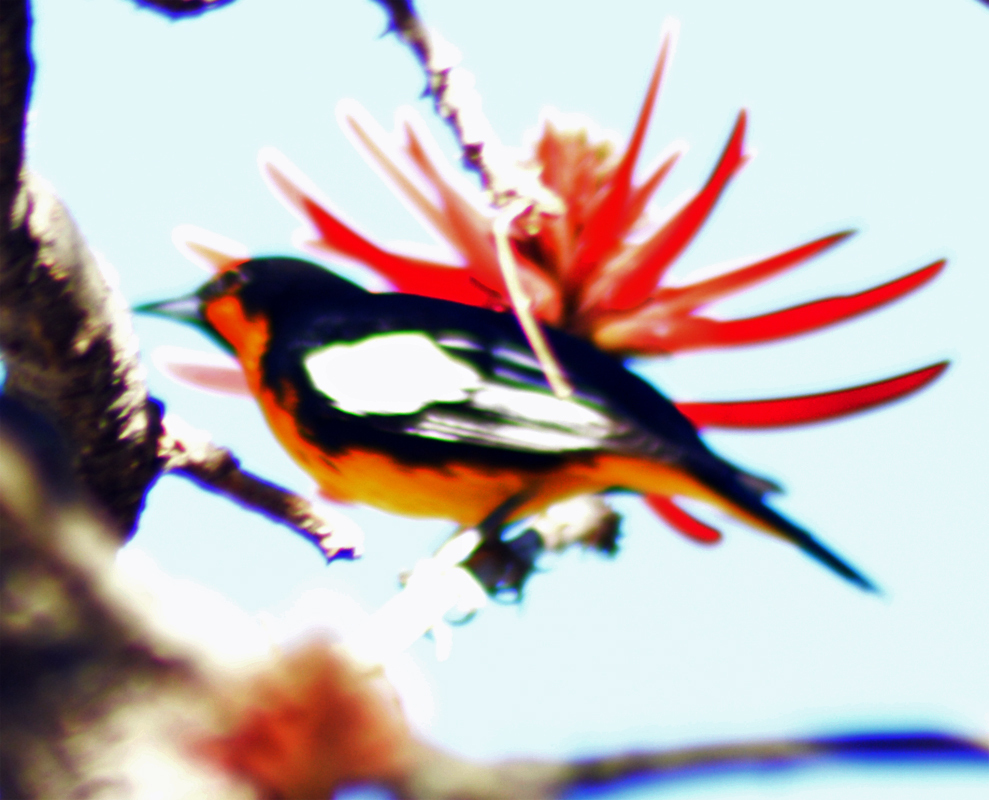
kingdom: Animalia
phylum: Chordata
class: Aves
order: Passeriformes
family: Icteridae
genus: Icterus
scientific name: Icterus abeillei
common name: Black-backed oriole
